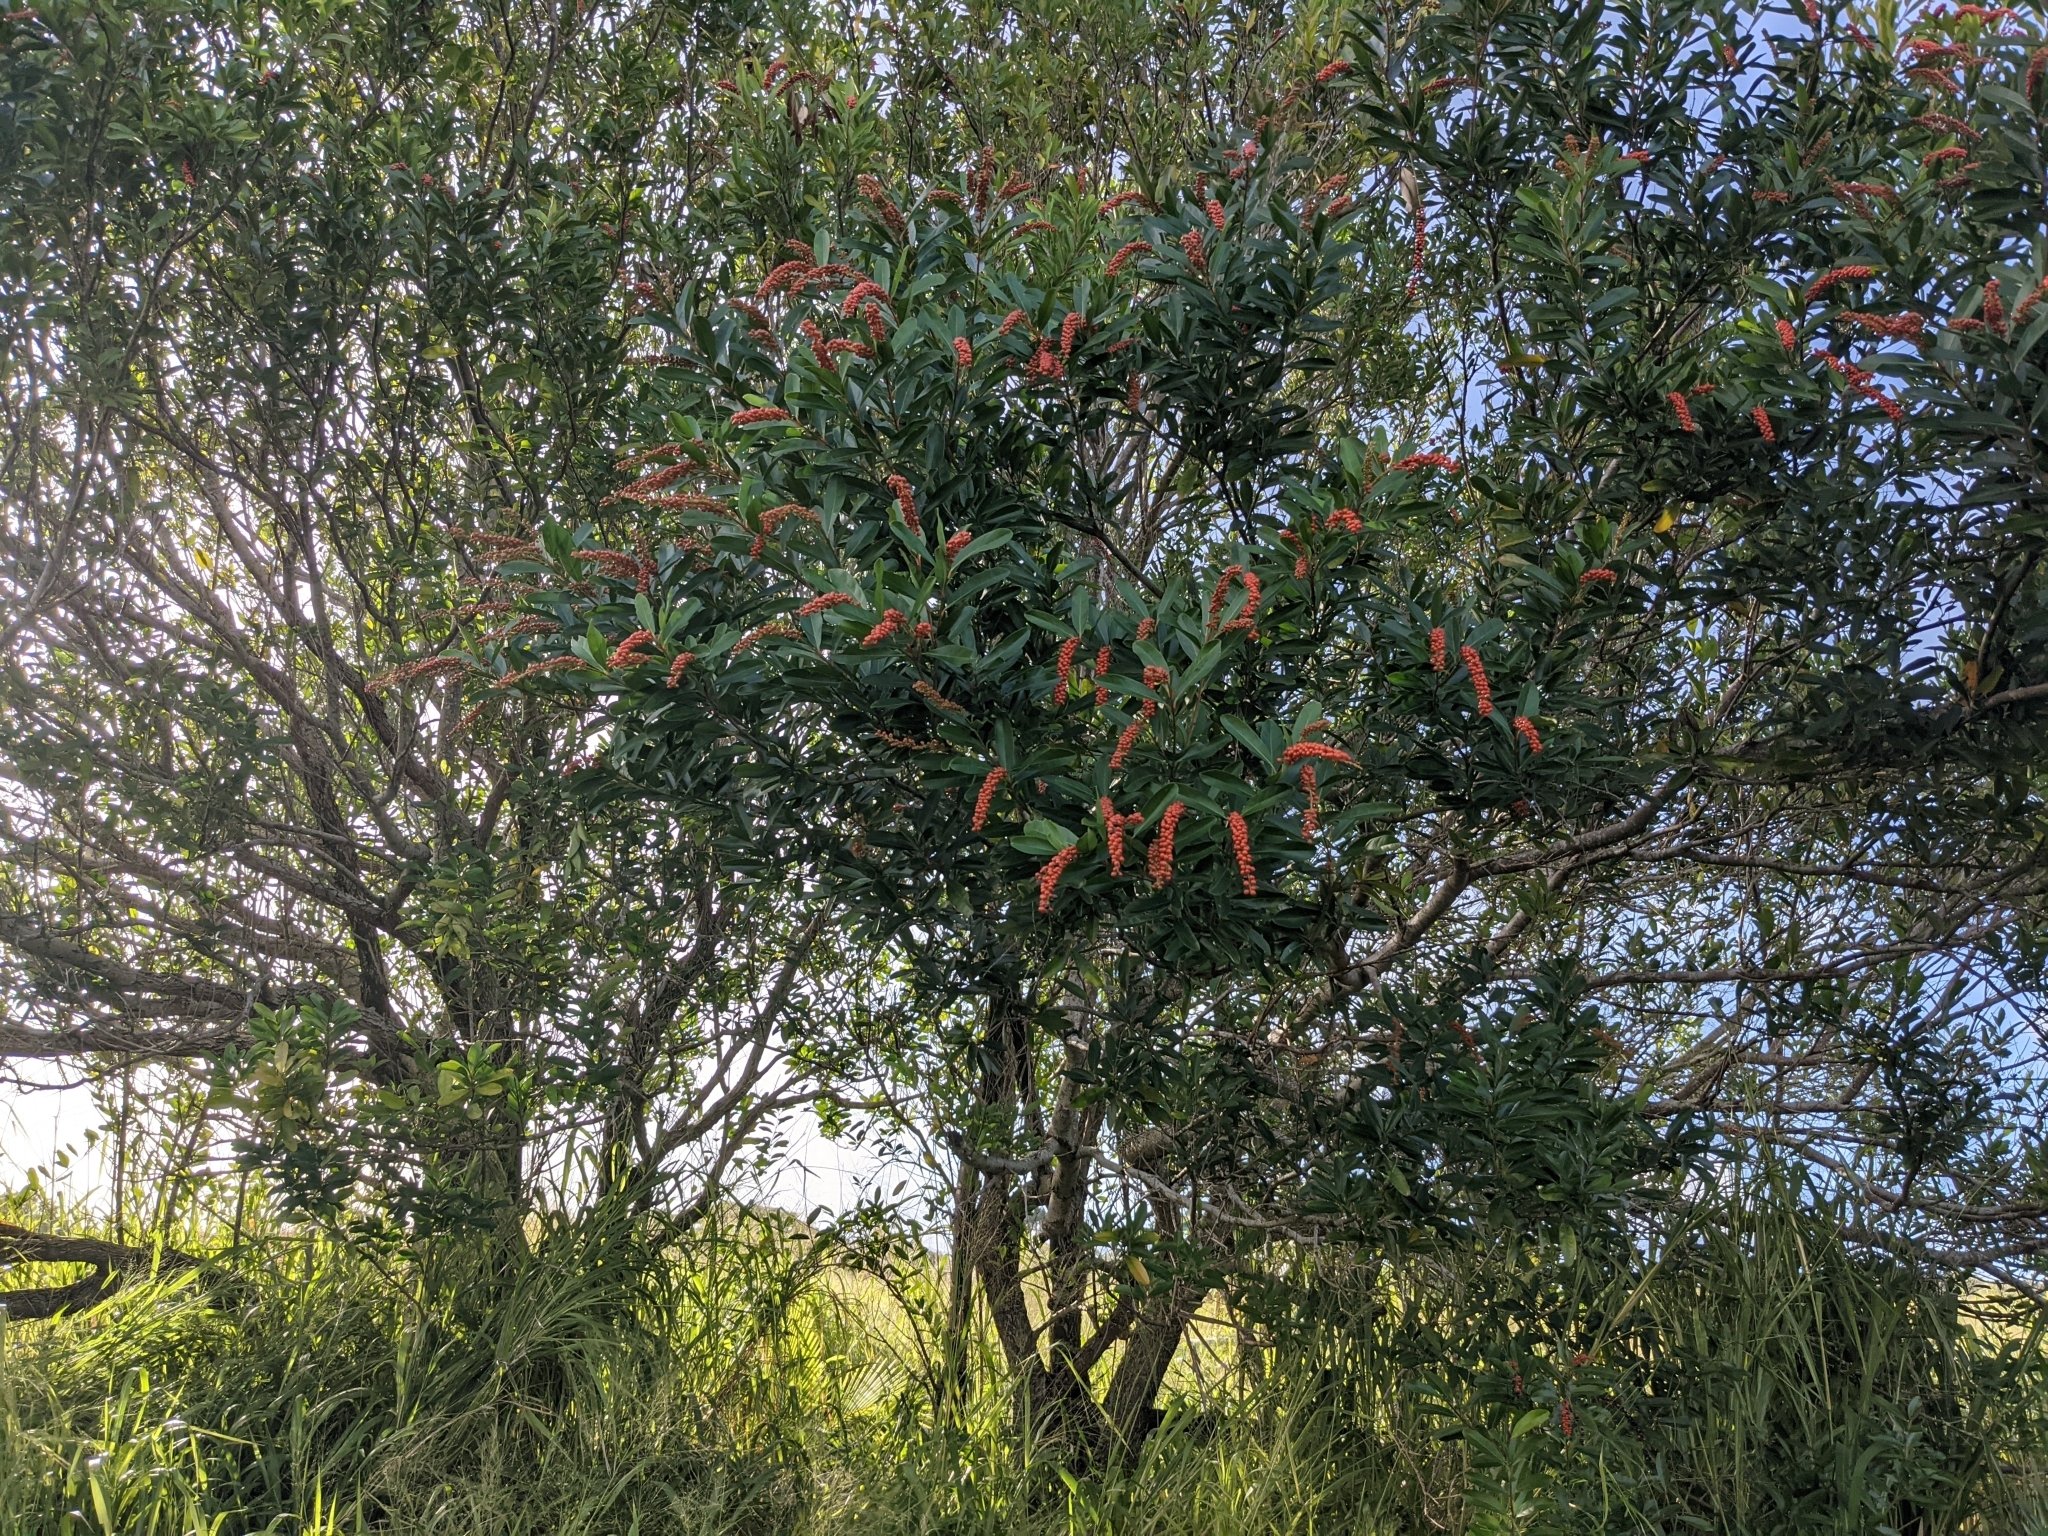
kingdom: Plantae
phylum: Tracheophyta
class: Magnoliopsida
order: Lamiales
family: Verbenaceae
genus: Citharexylum
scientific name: Citharexylum caudatum
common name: Fiddlewood
